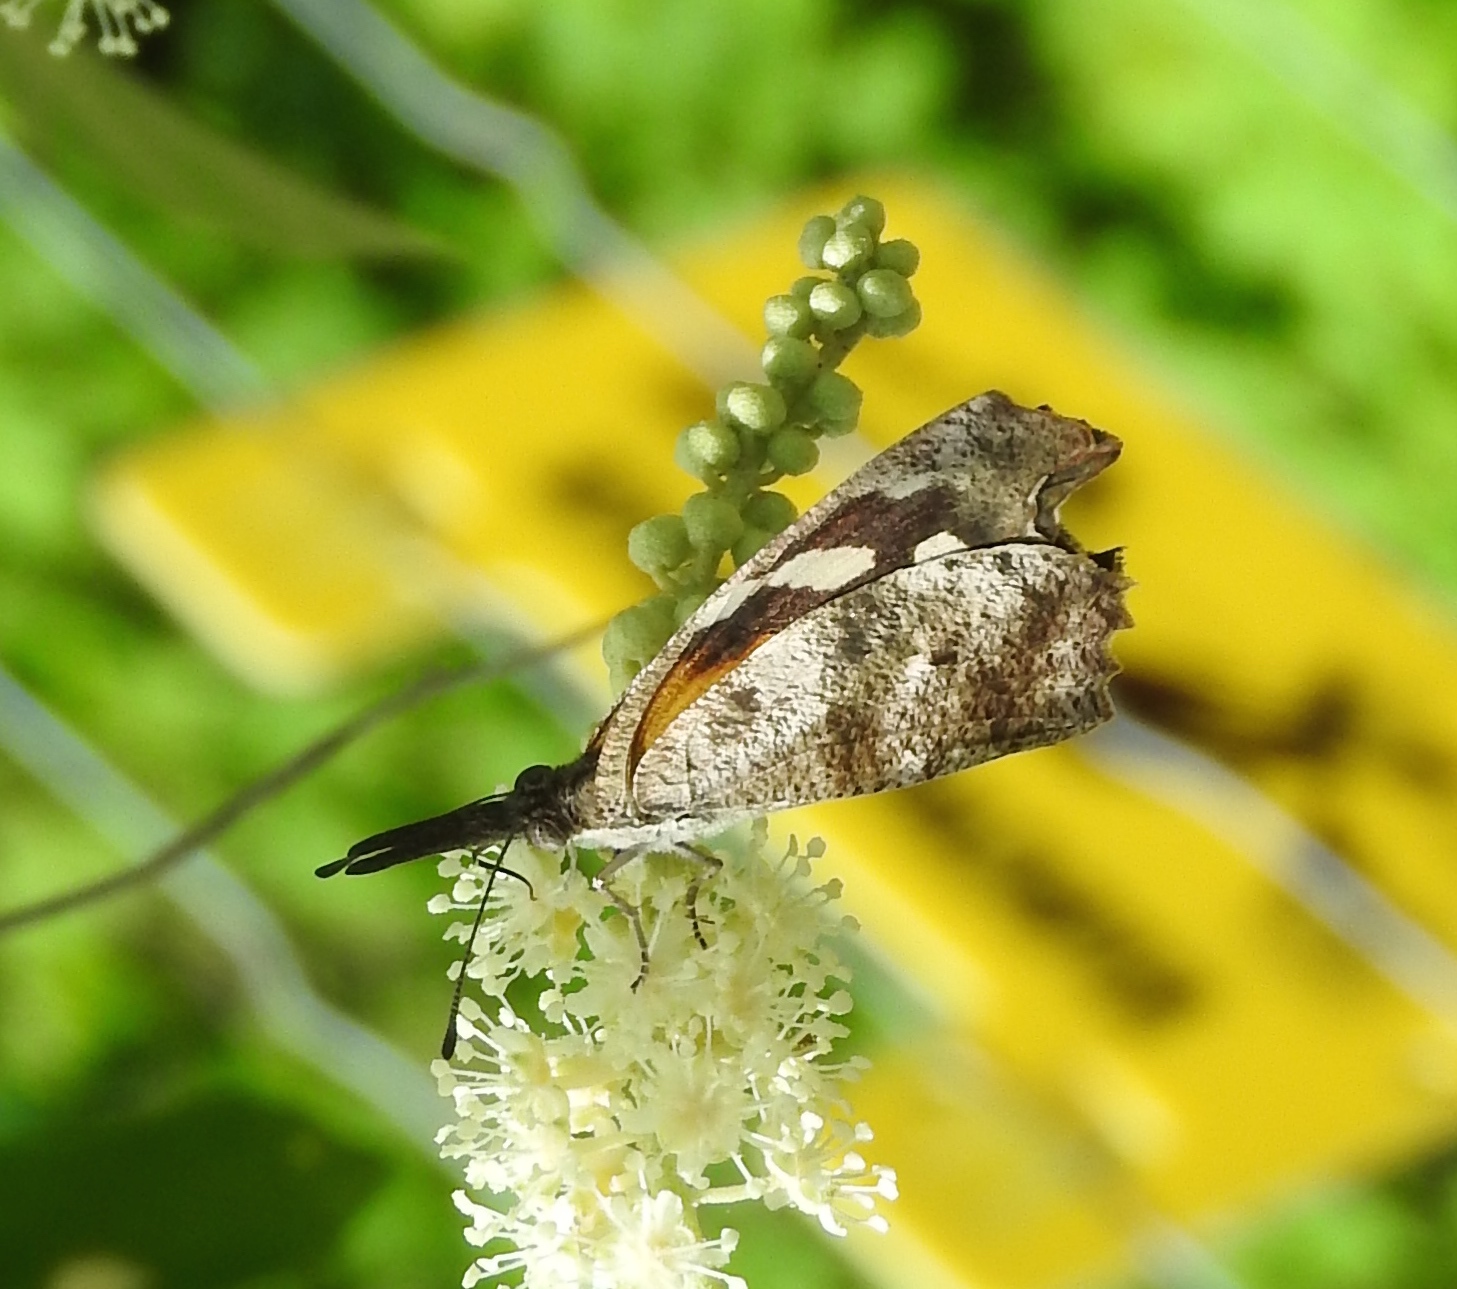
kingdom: Animalia
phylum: Arthropoda
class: Insecta
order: Lepidoptera
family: Nymphalidae
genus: Libytheana
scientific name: Libytheana carinenta
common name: American snout
